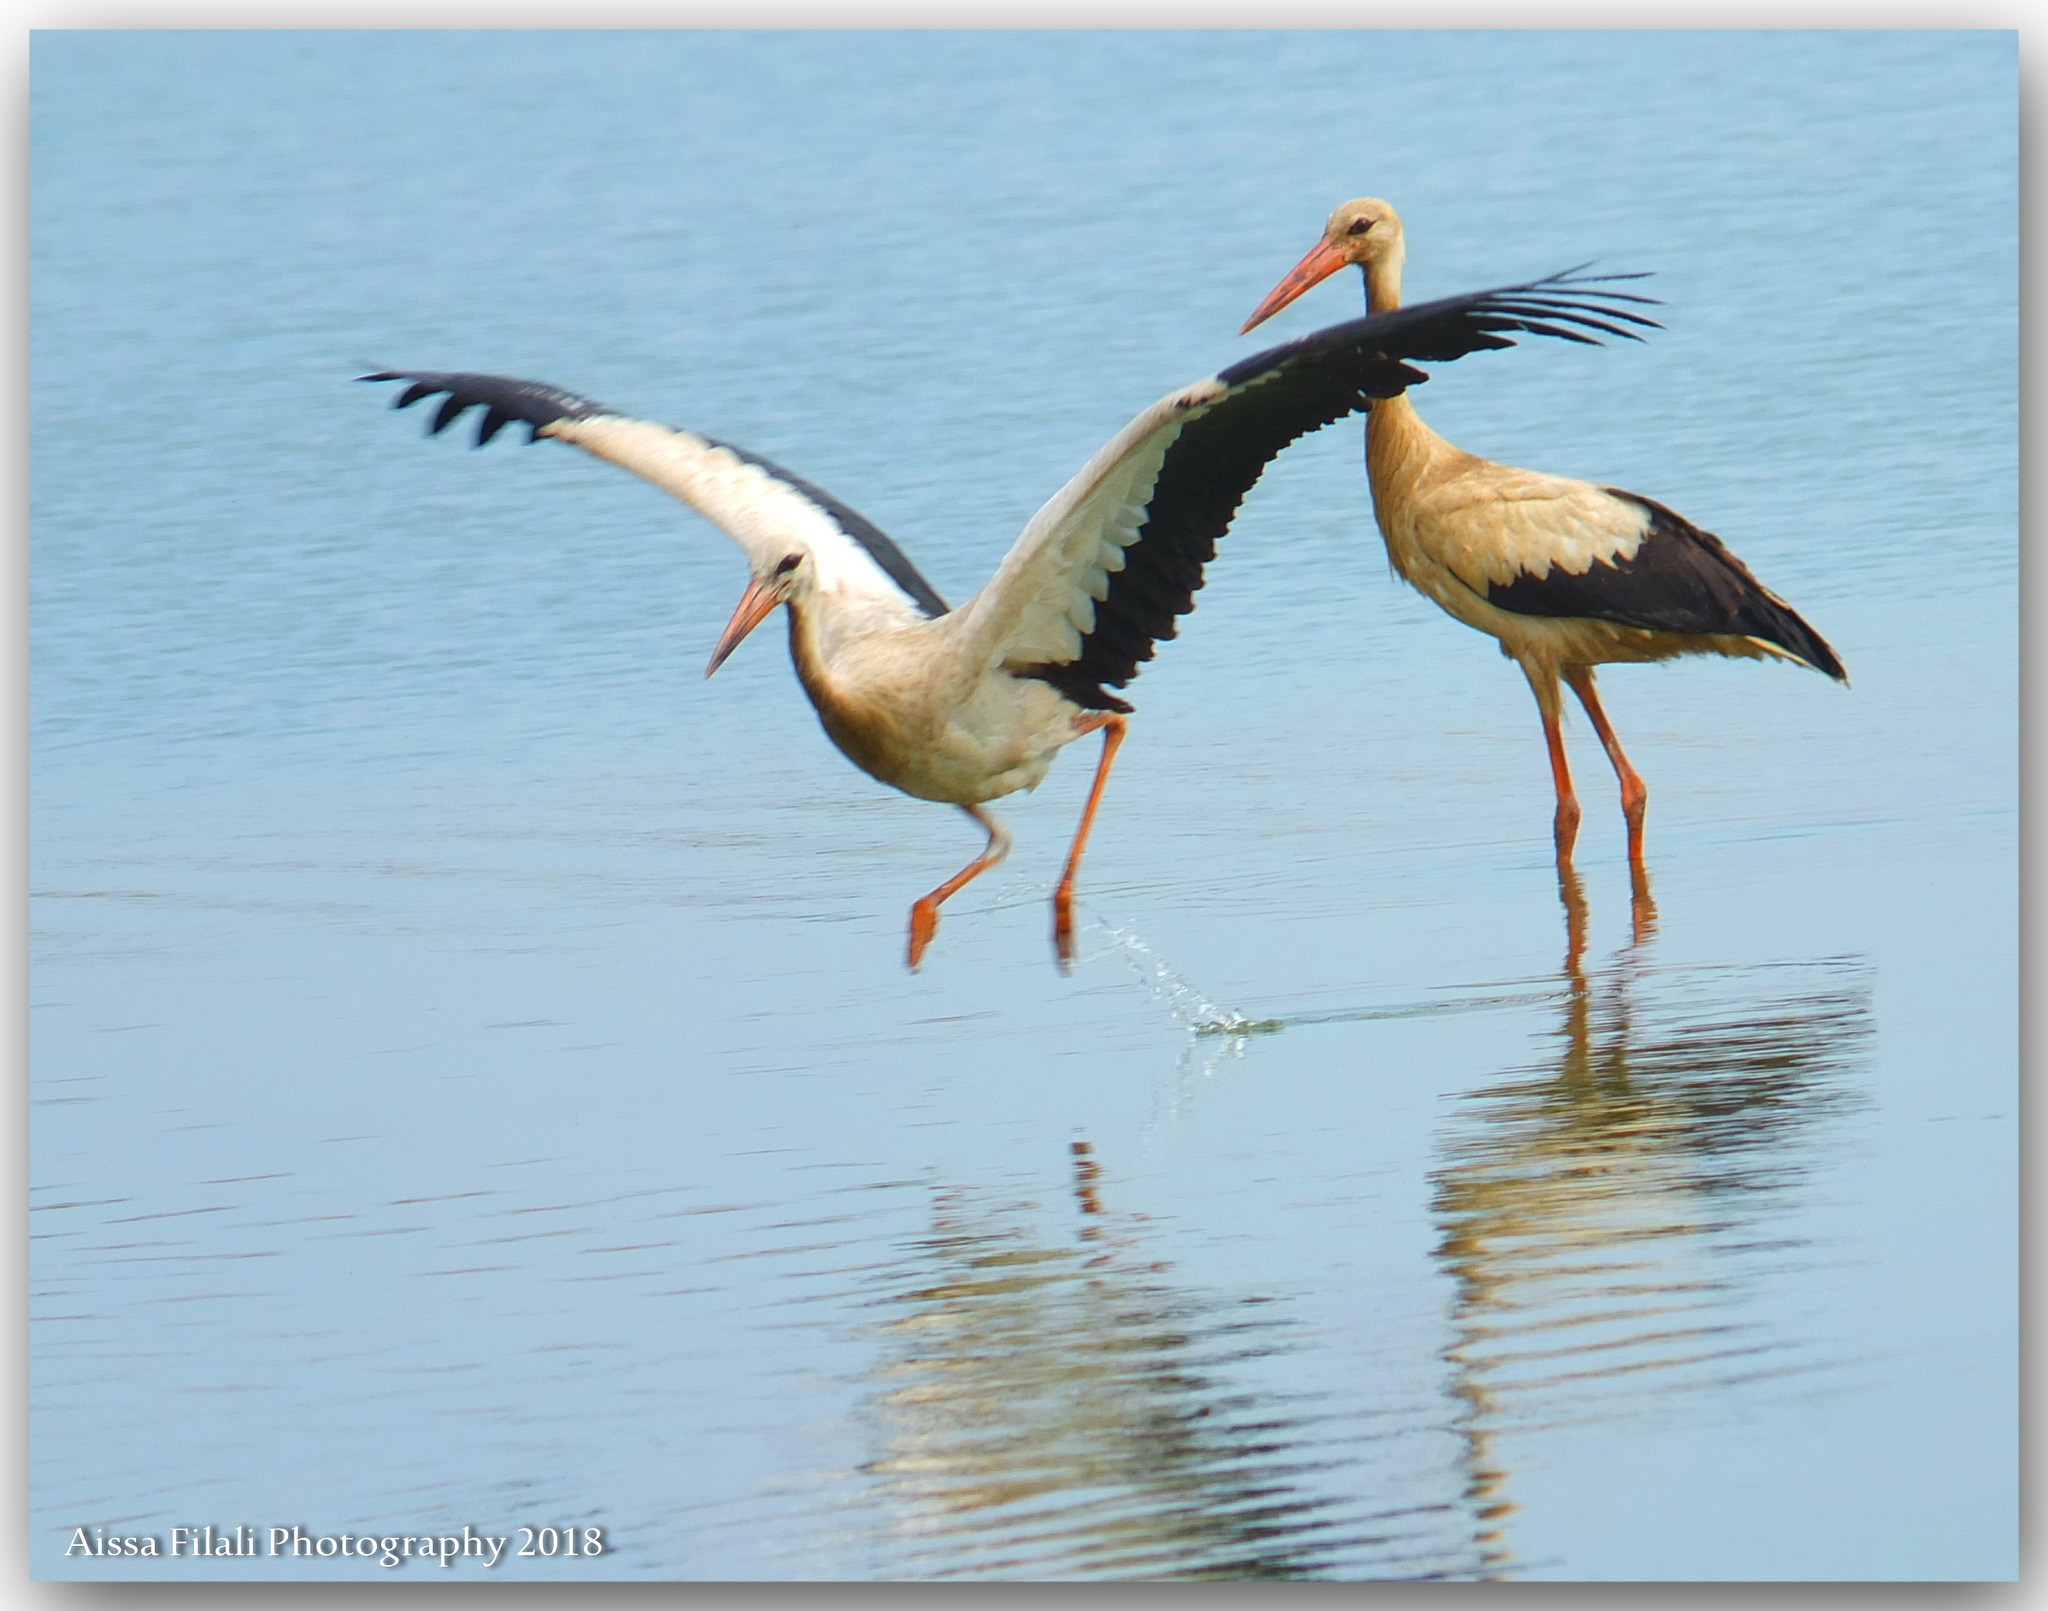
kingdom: Animalia
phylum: Chordata
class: Aves
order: Ciconiiformes
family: Ciconiidae
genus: Ciconia
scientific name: Ciconia ciconia
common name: White stork
